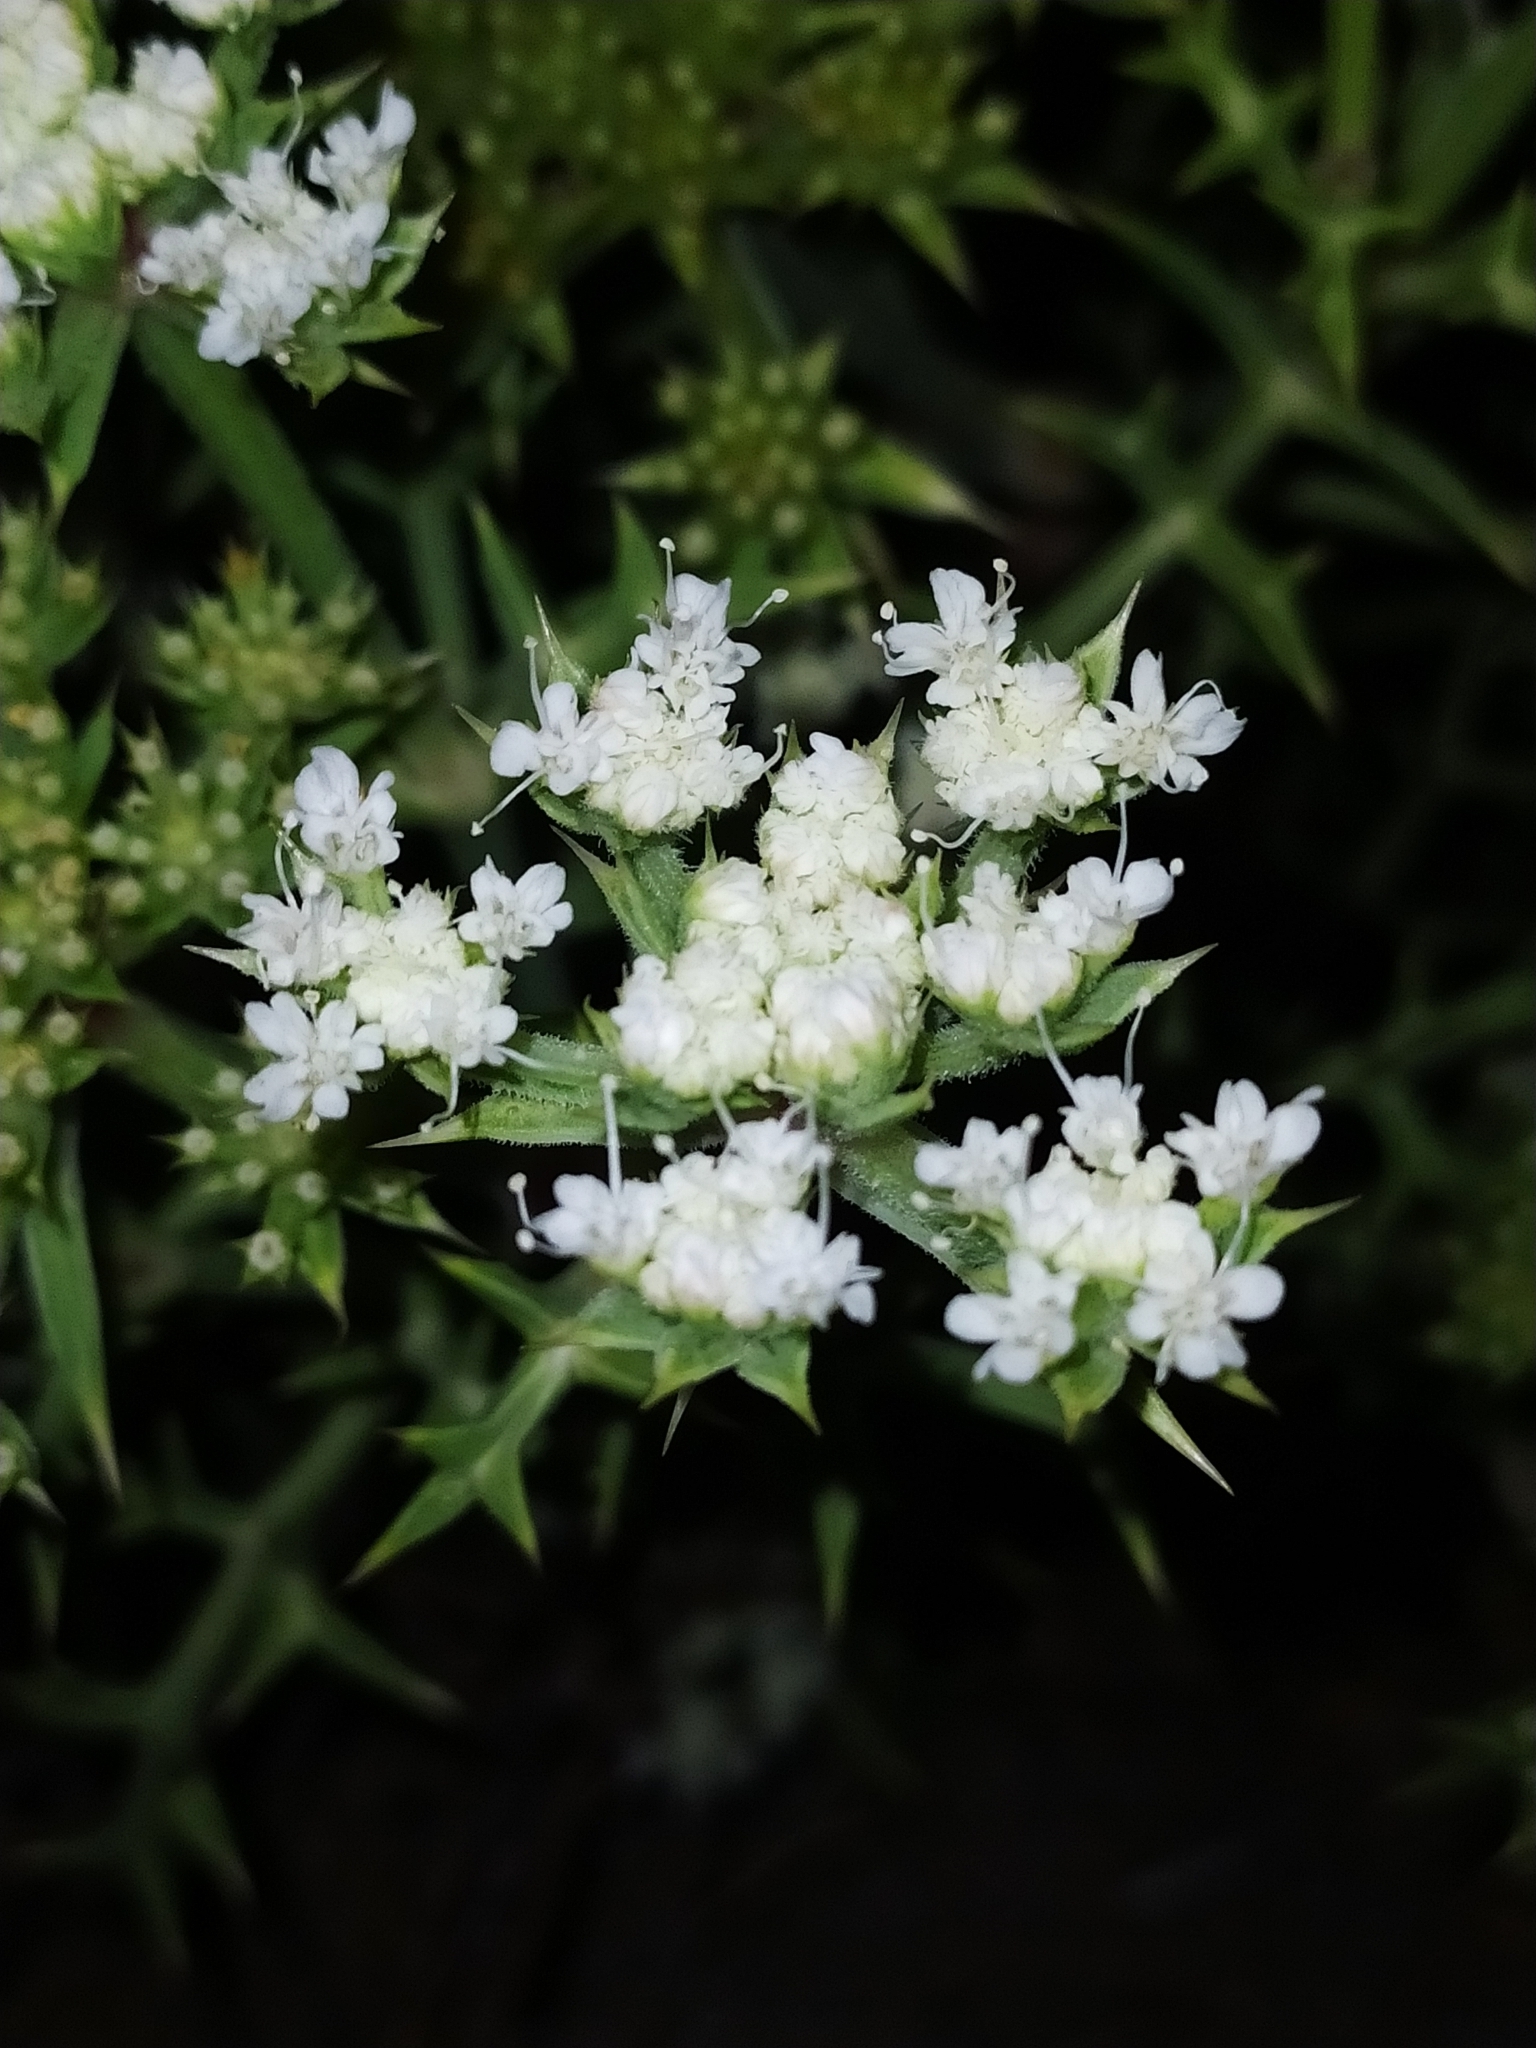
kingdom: Plantae
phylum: Tracheophyta
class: Magnoliopsida
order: Apiales
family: Apiaceae
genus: Echinophora
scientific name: Echinophora spinosa
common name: Prickly samphire
